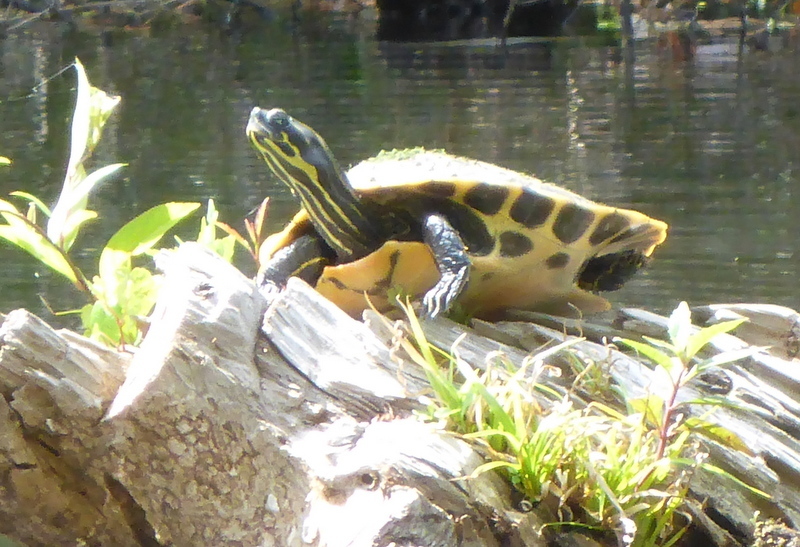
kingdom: Animalia
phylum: Chordata
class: Testudines
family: Emydidae
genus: Pseudemys
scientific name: Pseudemys concinna
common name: Eastern river cooter
